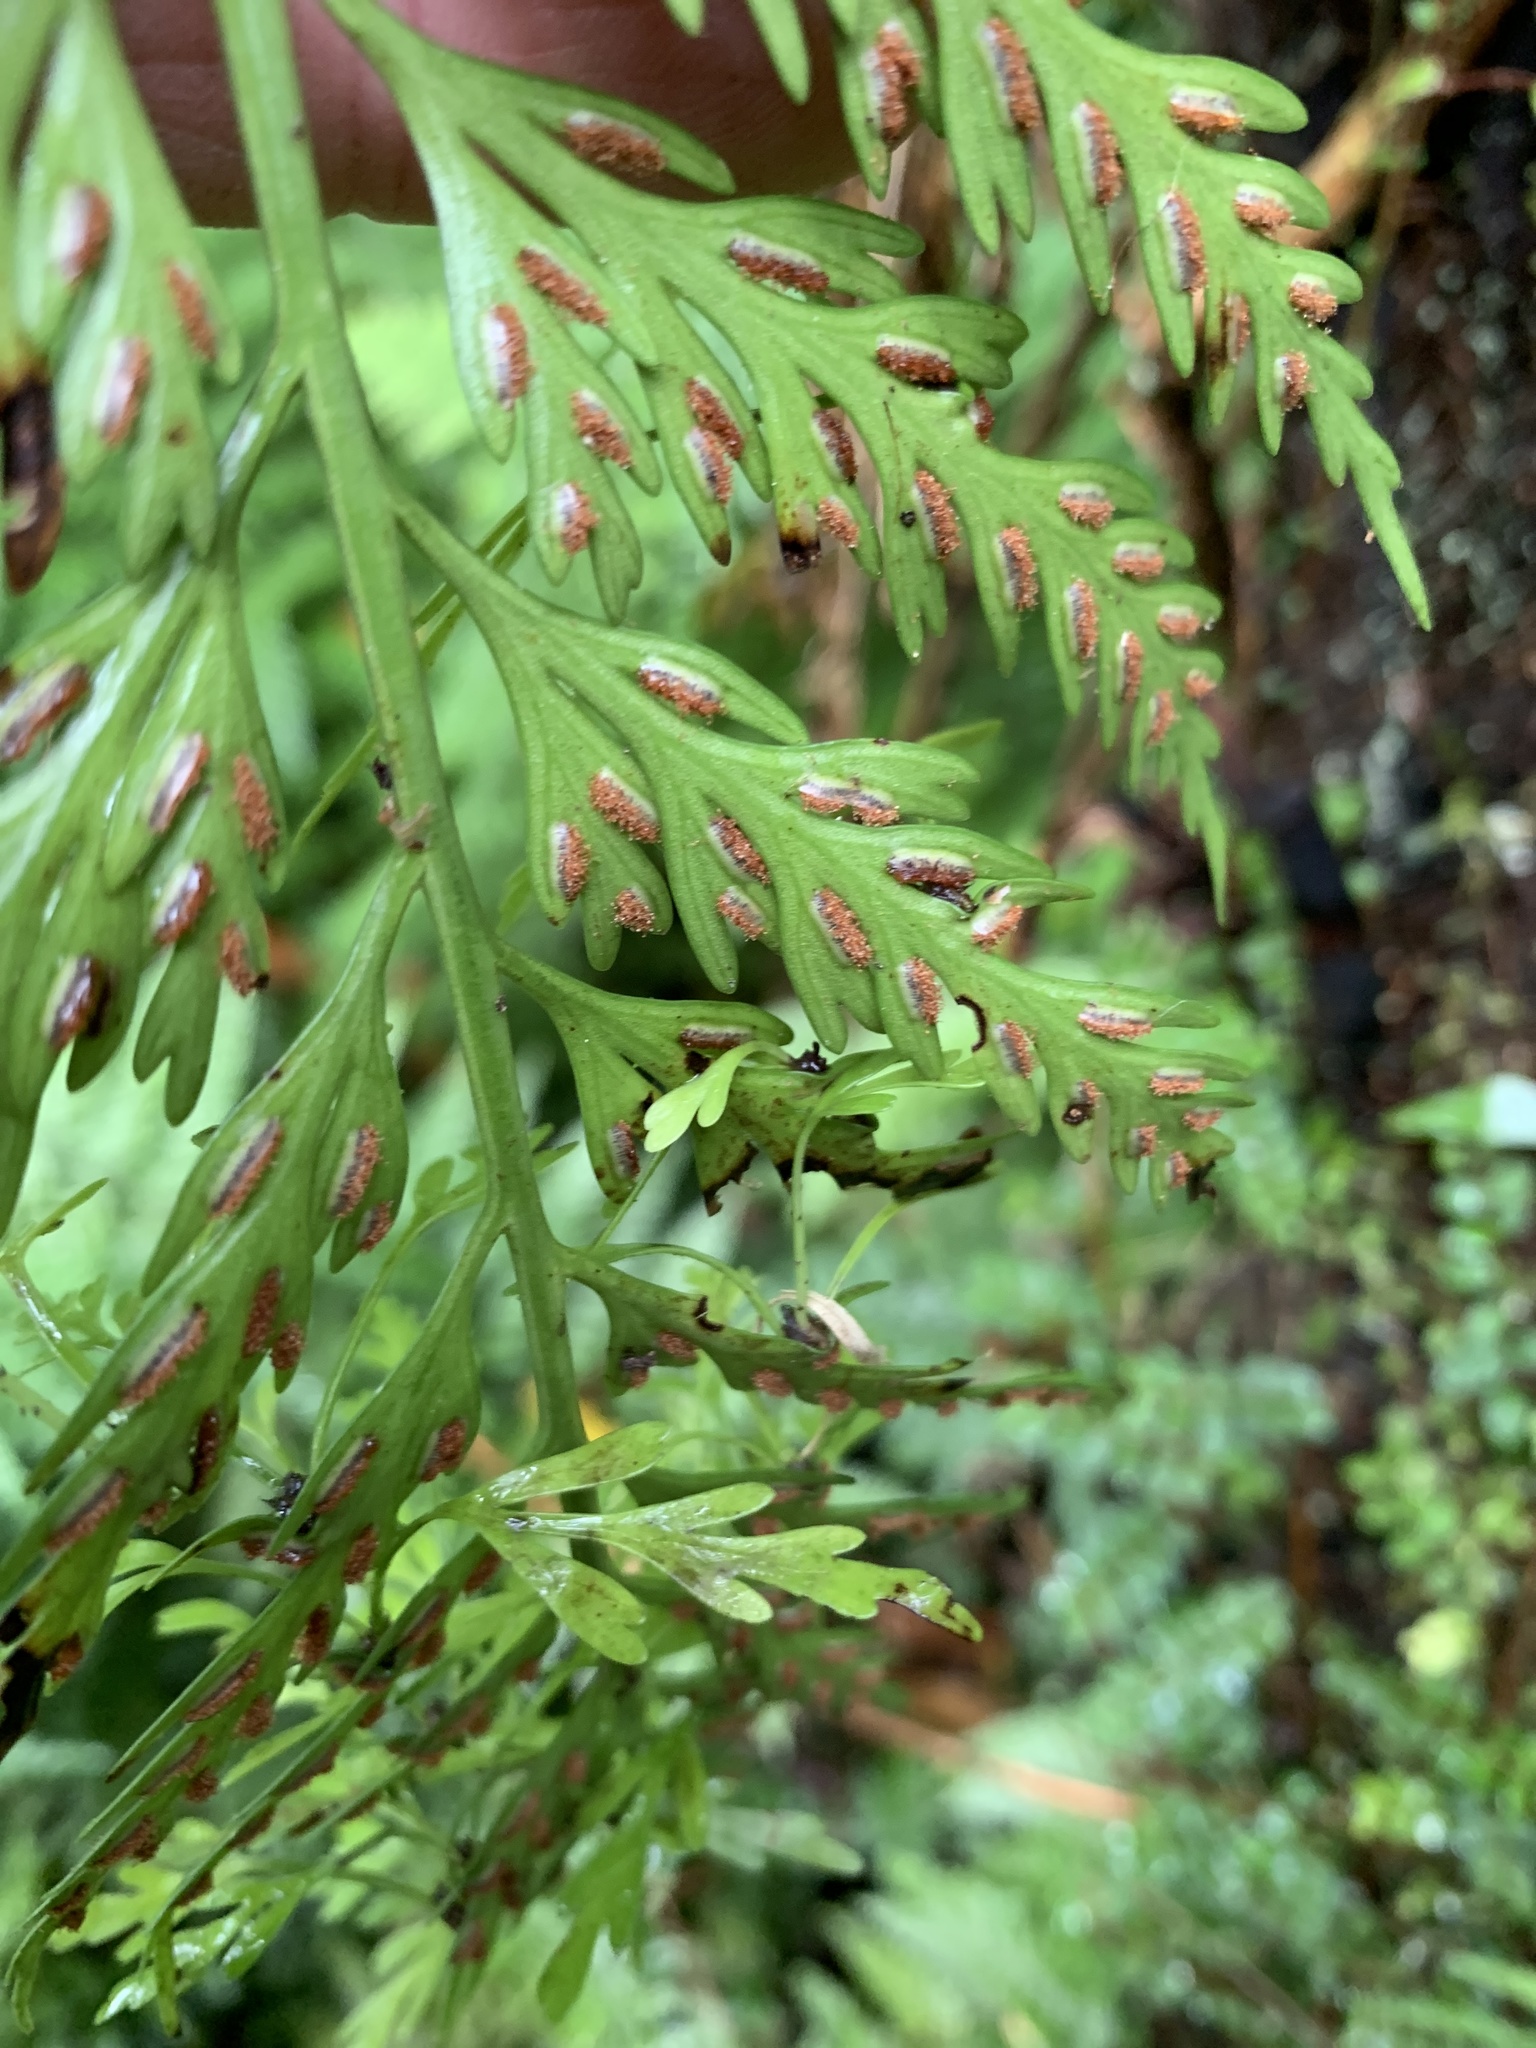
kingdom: Plantae
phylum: Tracheophyta
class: Polypodiopsida
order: Polypodiales
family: Aspleniaceae
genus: Asplenium
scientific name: Asplenium flaccidum
